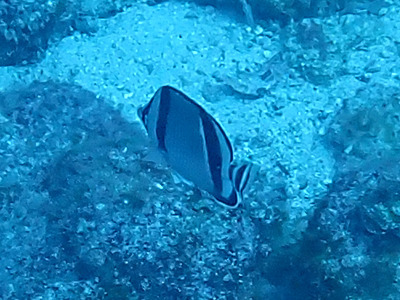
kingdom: Animalia
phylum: Chordata
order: Perciformes
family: Chaetodontidae
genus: Chaetodon
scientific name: Chaetodon humeralis
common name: Threebanded butterflyfish
